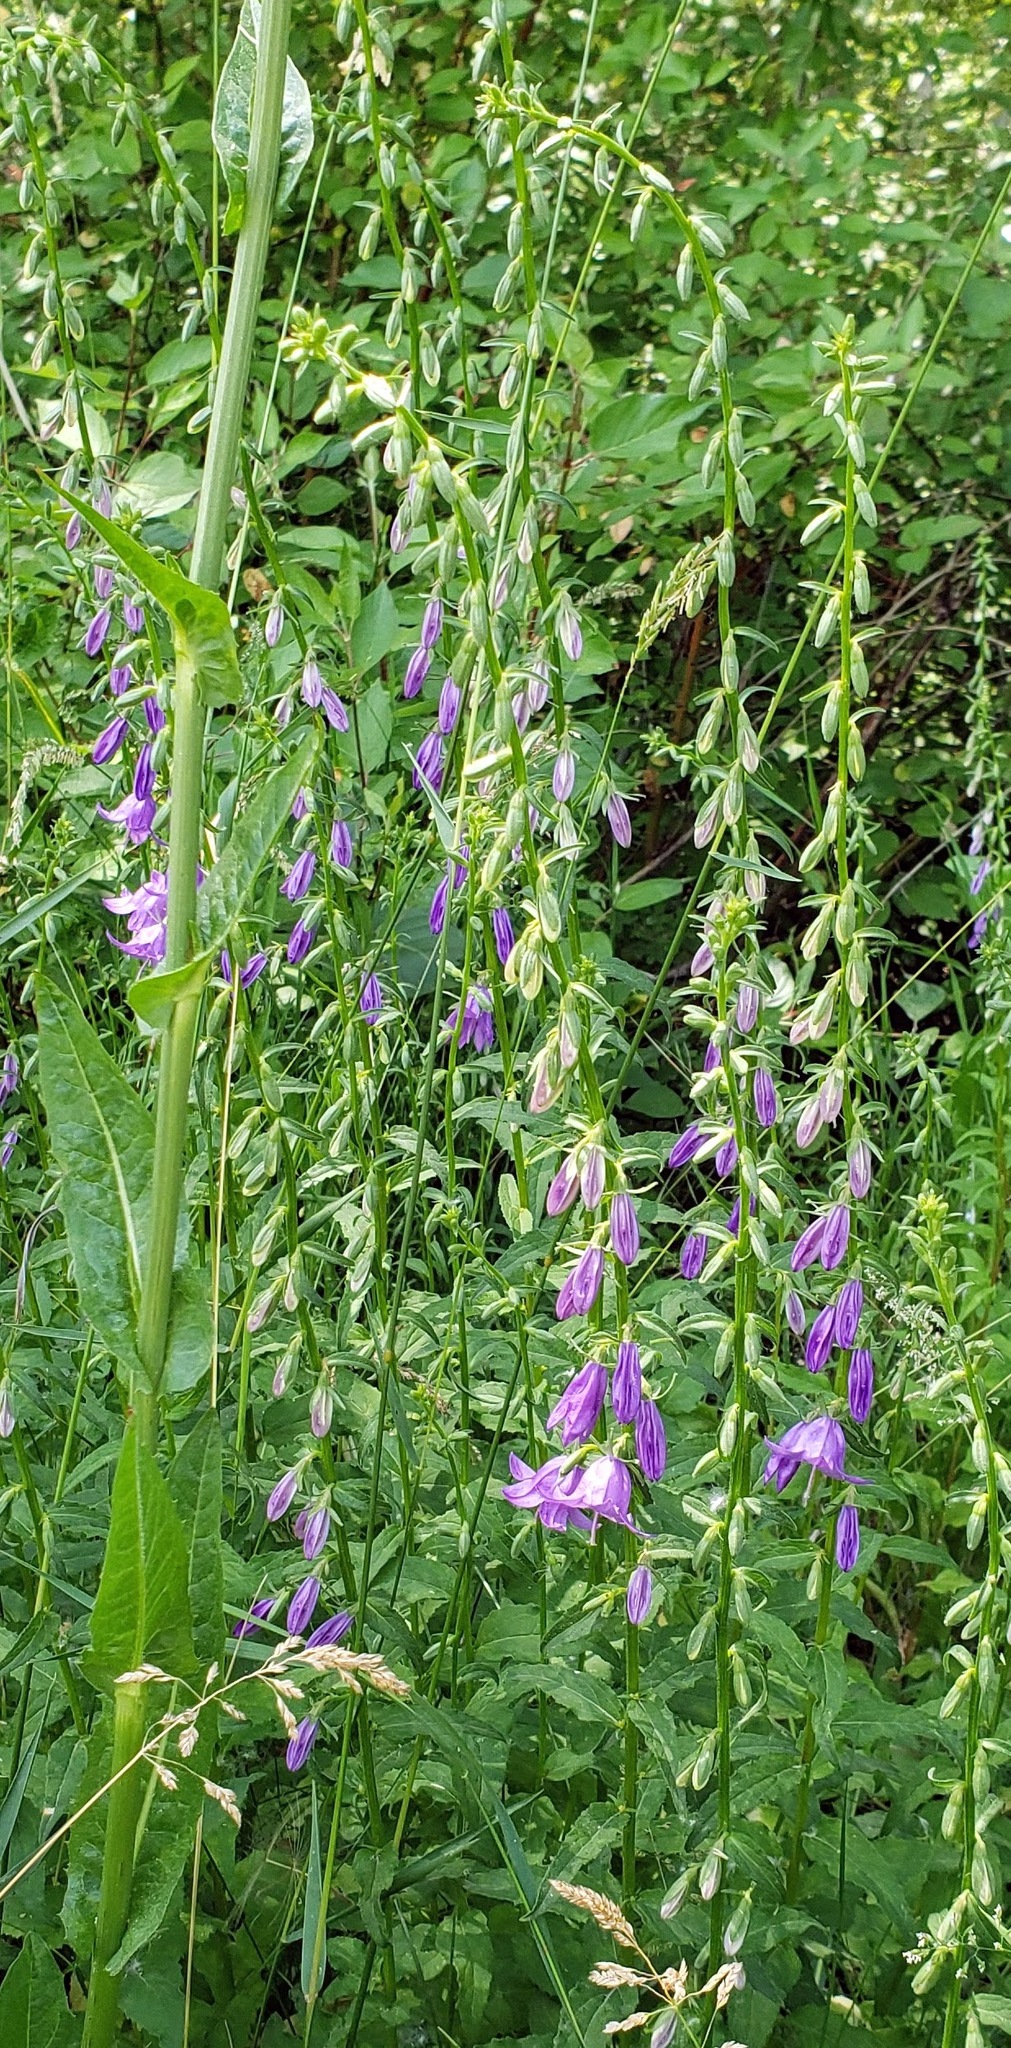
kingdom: Plantae
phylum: Tracheophyta
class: Magnoliopsida
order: Asterales
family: Campanulaceae
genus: Campanula
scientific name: Campanula rapunculoides
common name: Creeping bellflower
